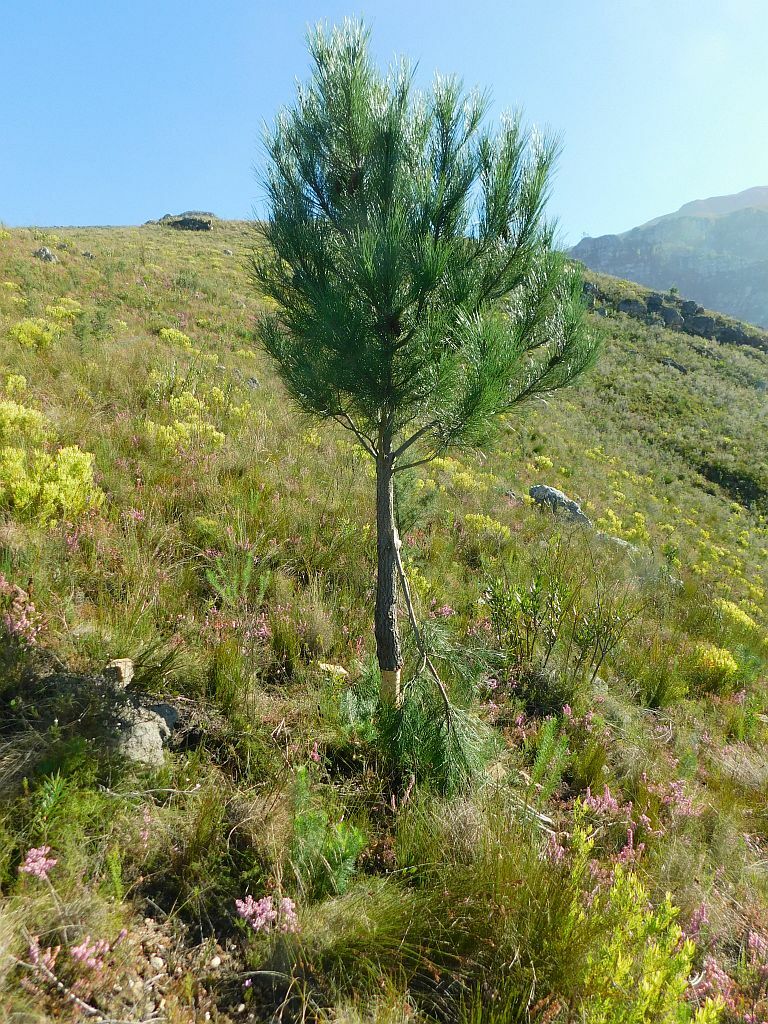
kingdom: Plantae
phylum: Tracheophyta
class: Pinopsida
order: Pinales
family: Pinaceae
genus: Pinus
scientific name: Pinus pinaster
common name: Maritime pine
